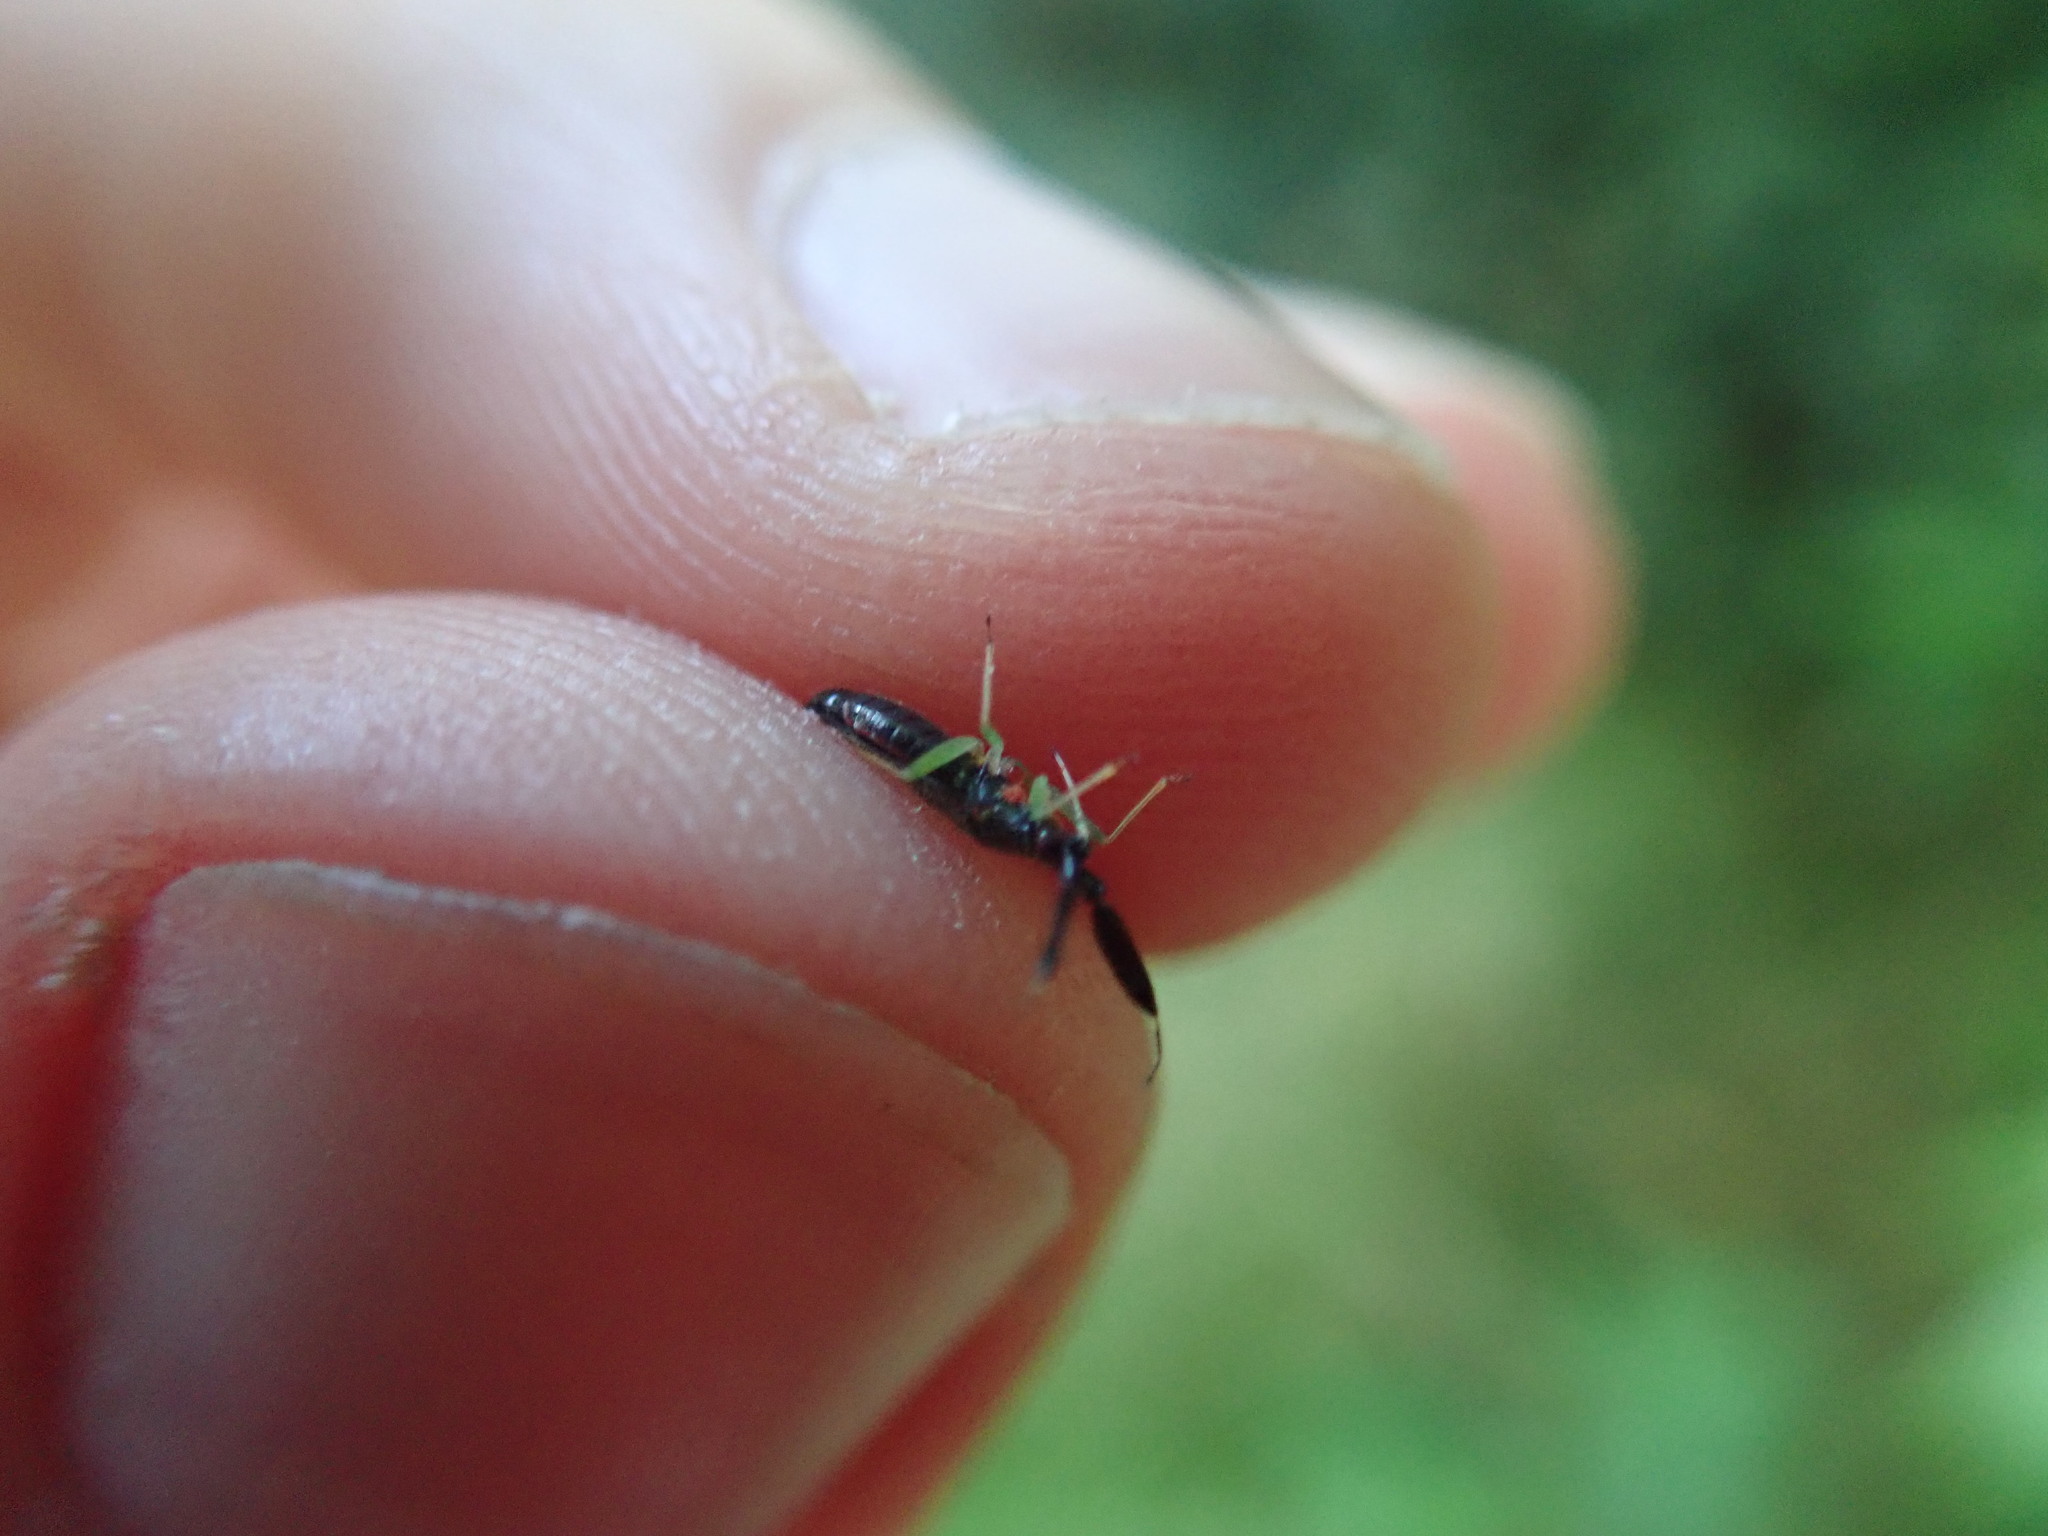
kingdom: Animalia
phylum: Arthropoda
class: Insecta
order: Hemiptera
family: Miridae
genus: Heterotoma
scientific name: Heterotoma planicornis
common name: Plant bug
